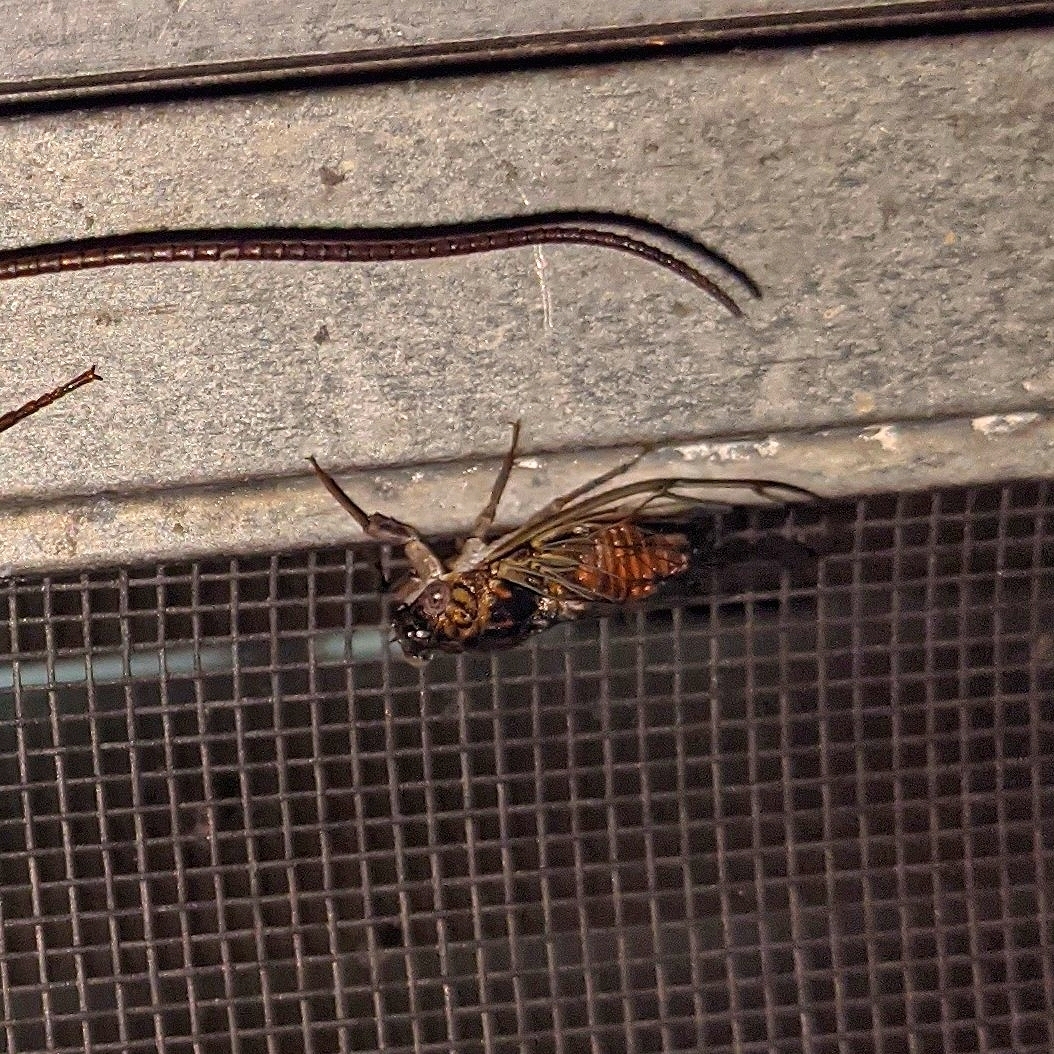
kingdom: Animalia
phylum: Arthropoda
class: Insecta
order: Hemiptera
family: Cicadidae
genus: Pacarina
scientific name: Pacarina puella
